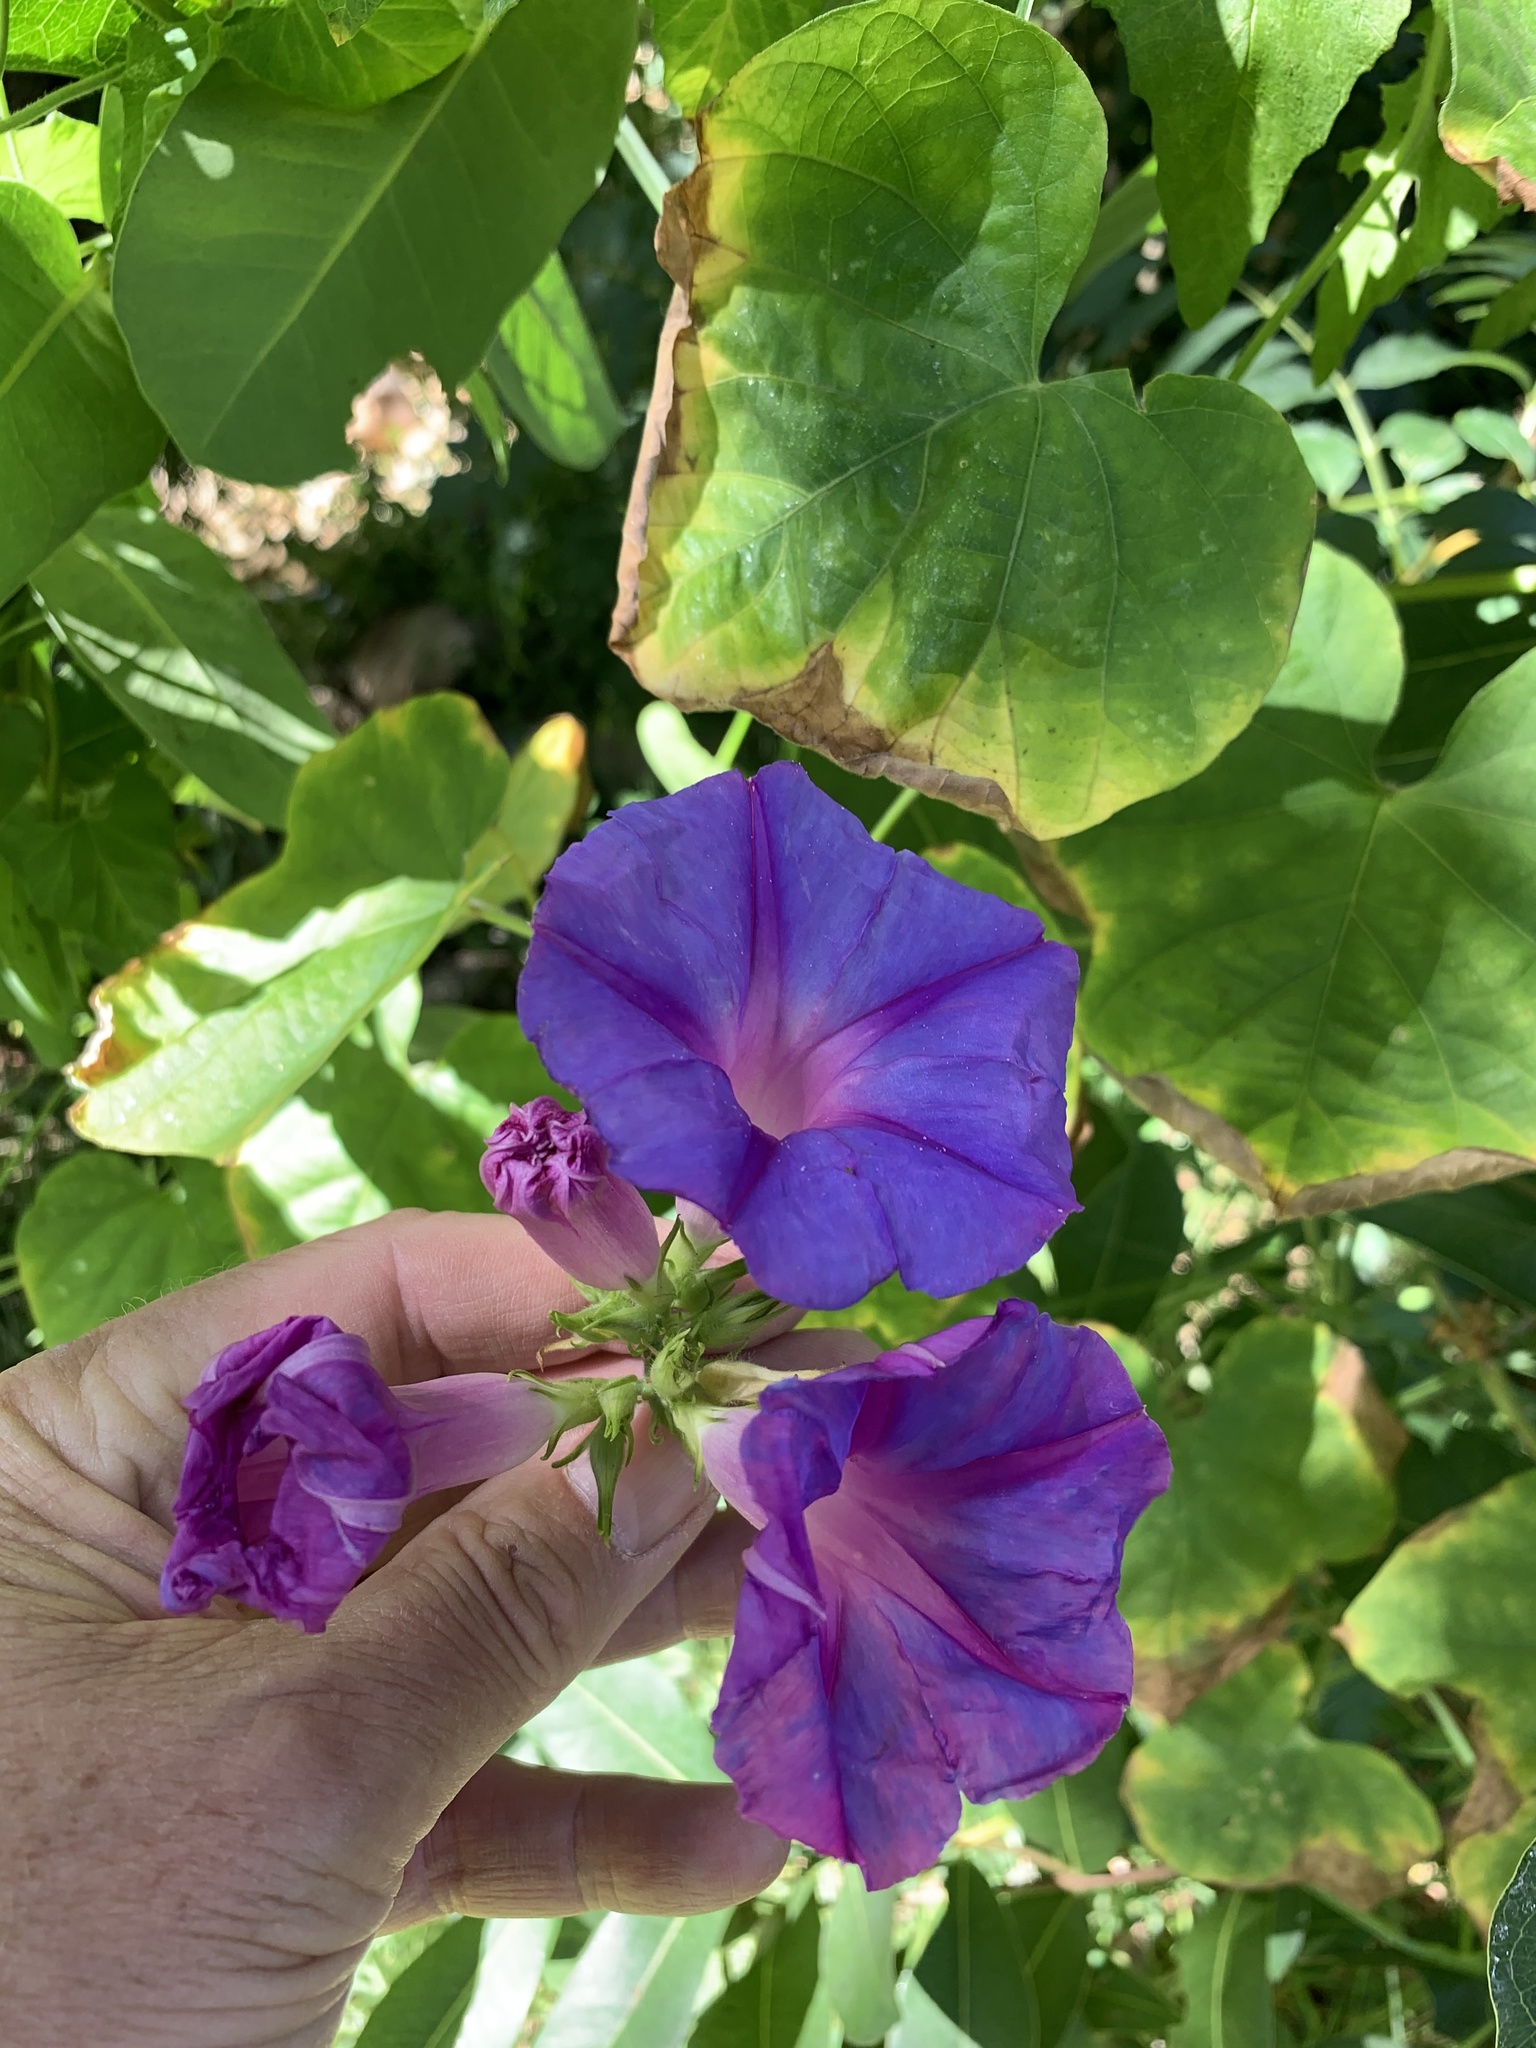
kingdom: Plantae
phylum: Tracheophyta
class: Magnoliopsida
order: Solanales
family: Convolvulaceae
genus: Ipomoea
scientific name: Ipomoea indica
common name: Blue dawnflower
